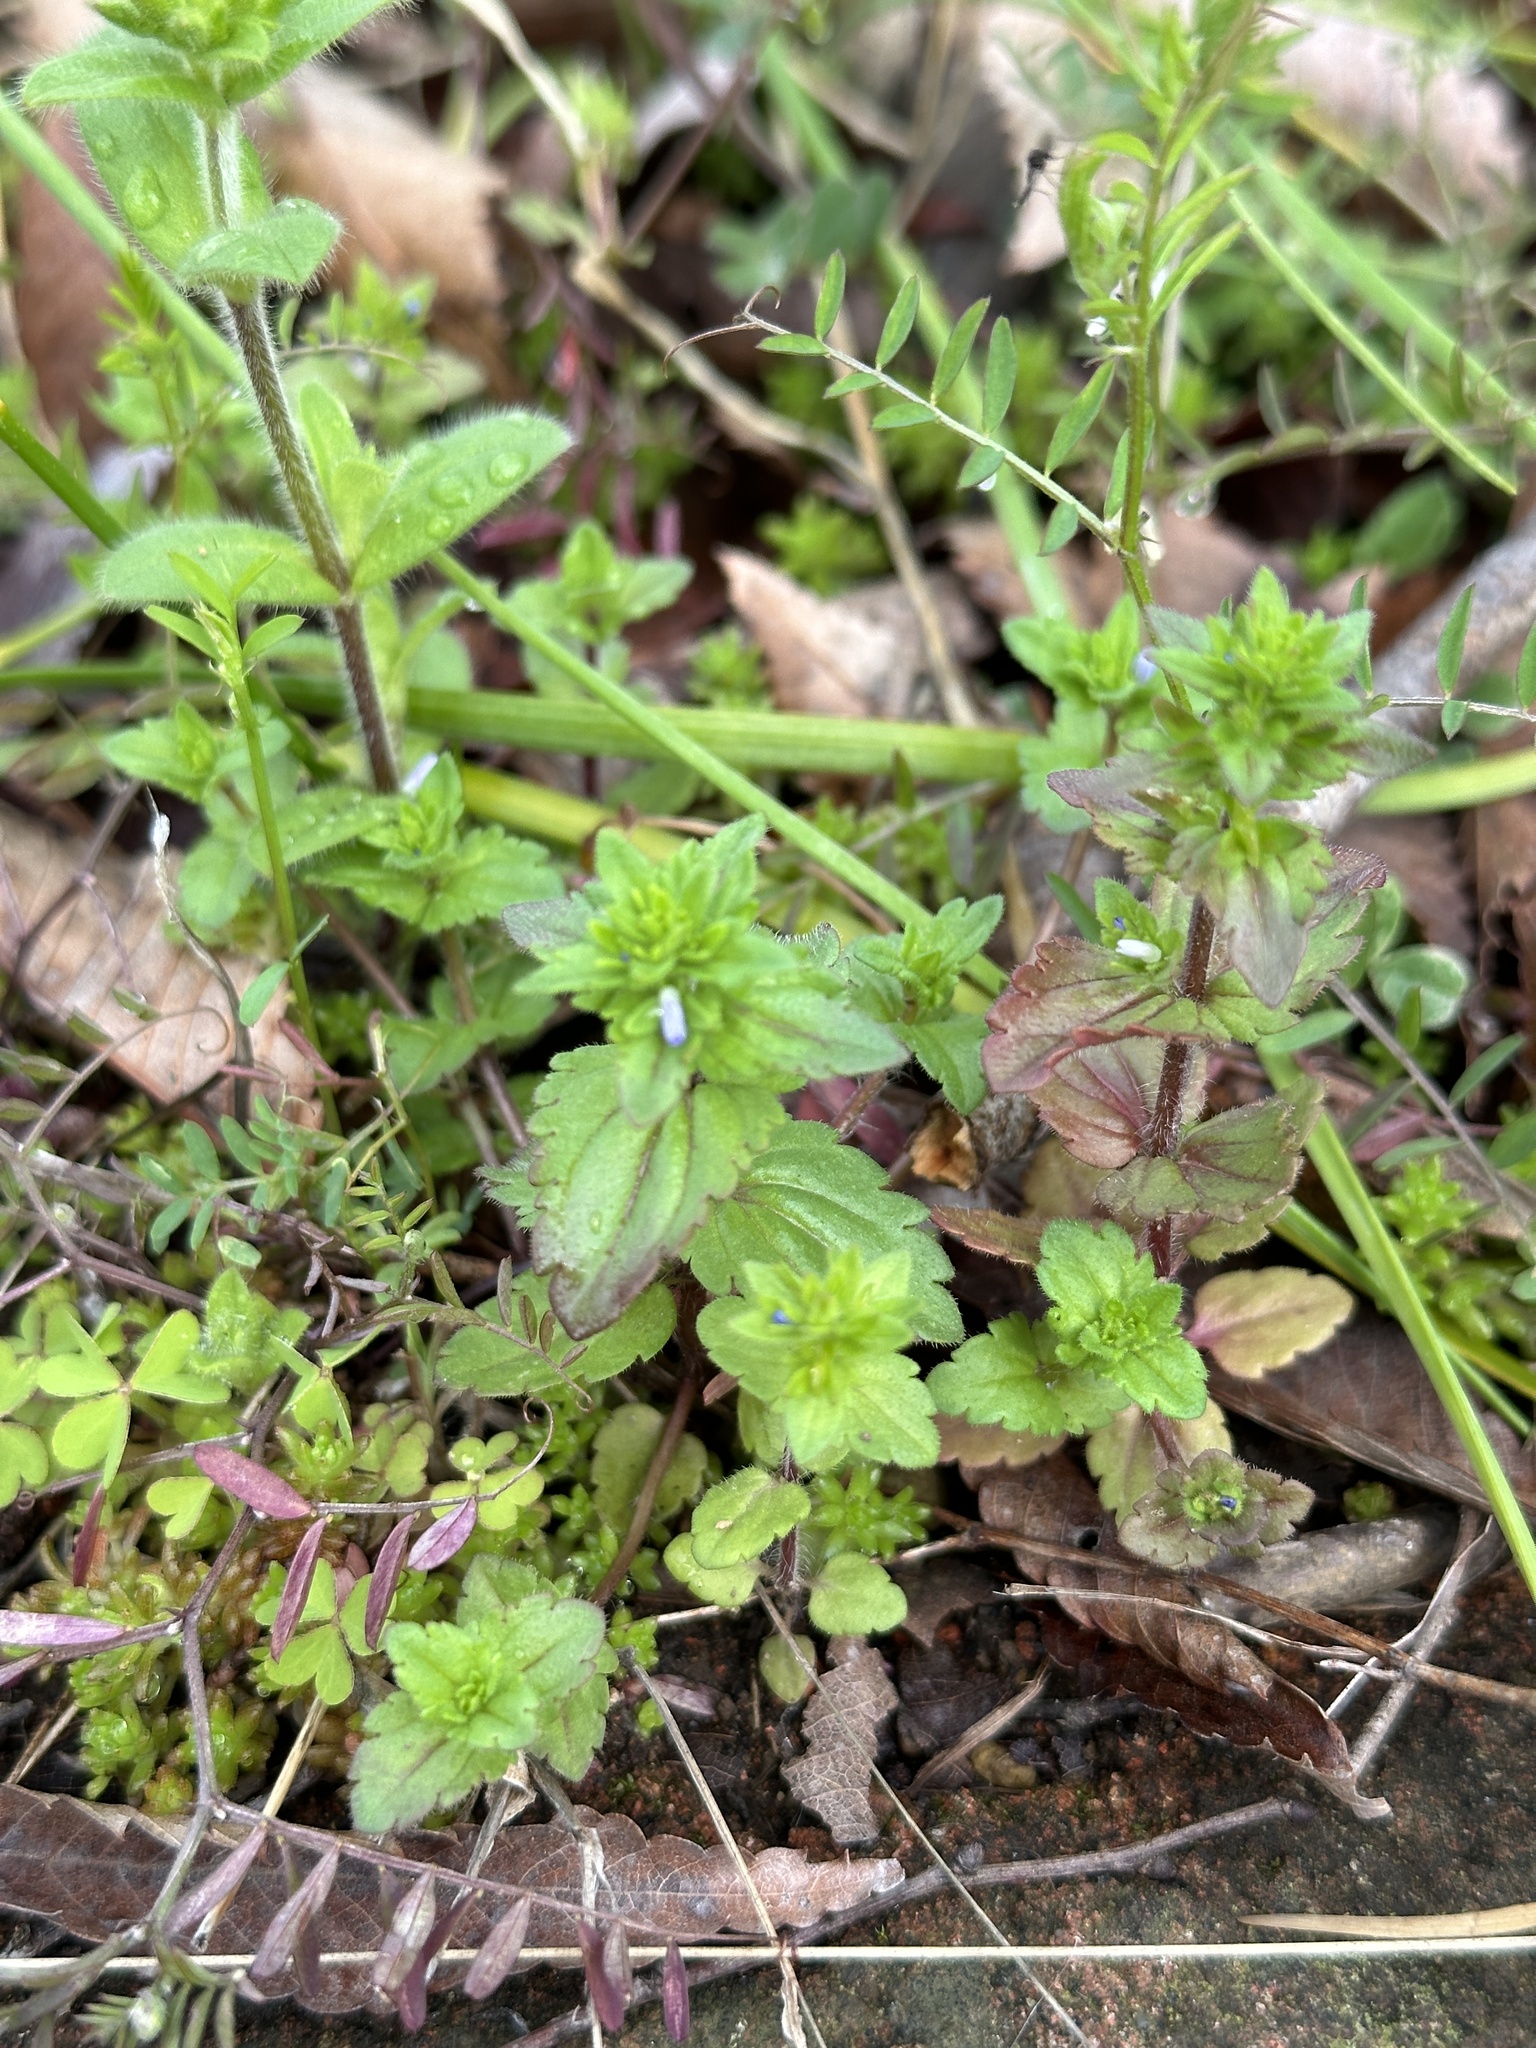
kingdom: Plantae
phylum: Tracheophyta
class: Magnoliopsida
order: Lamiales
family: Plantaginaceae
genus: Veronica
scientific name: Veronica arvensis
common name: Corn speedwell
